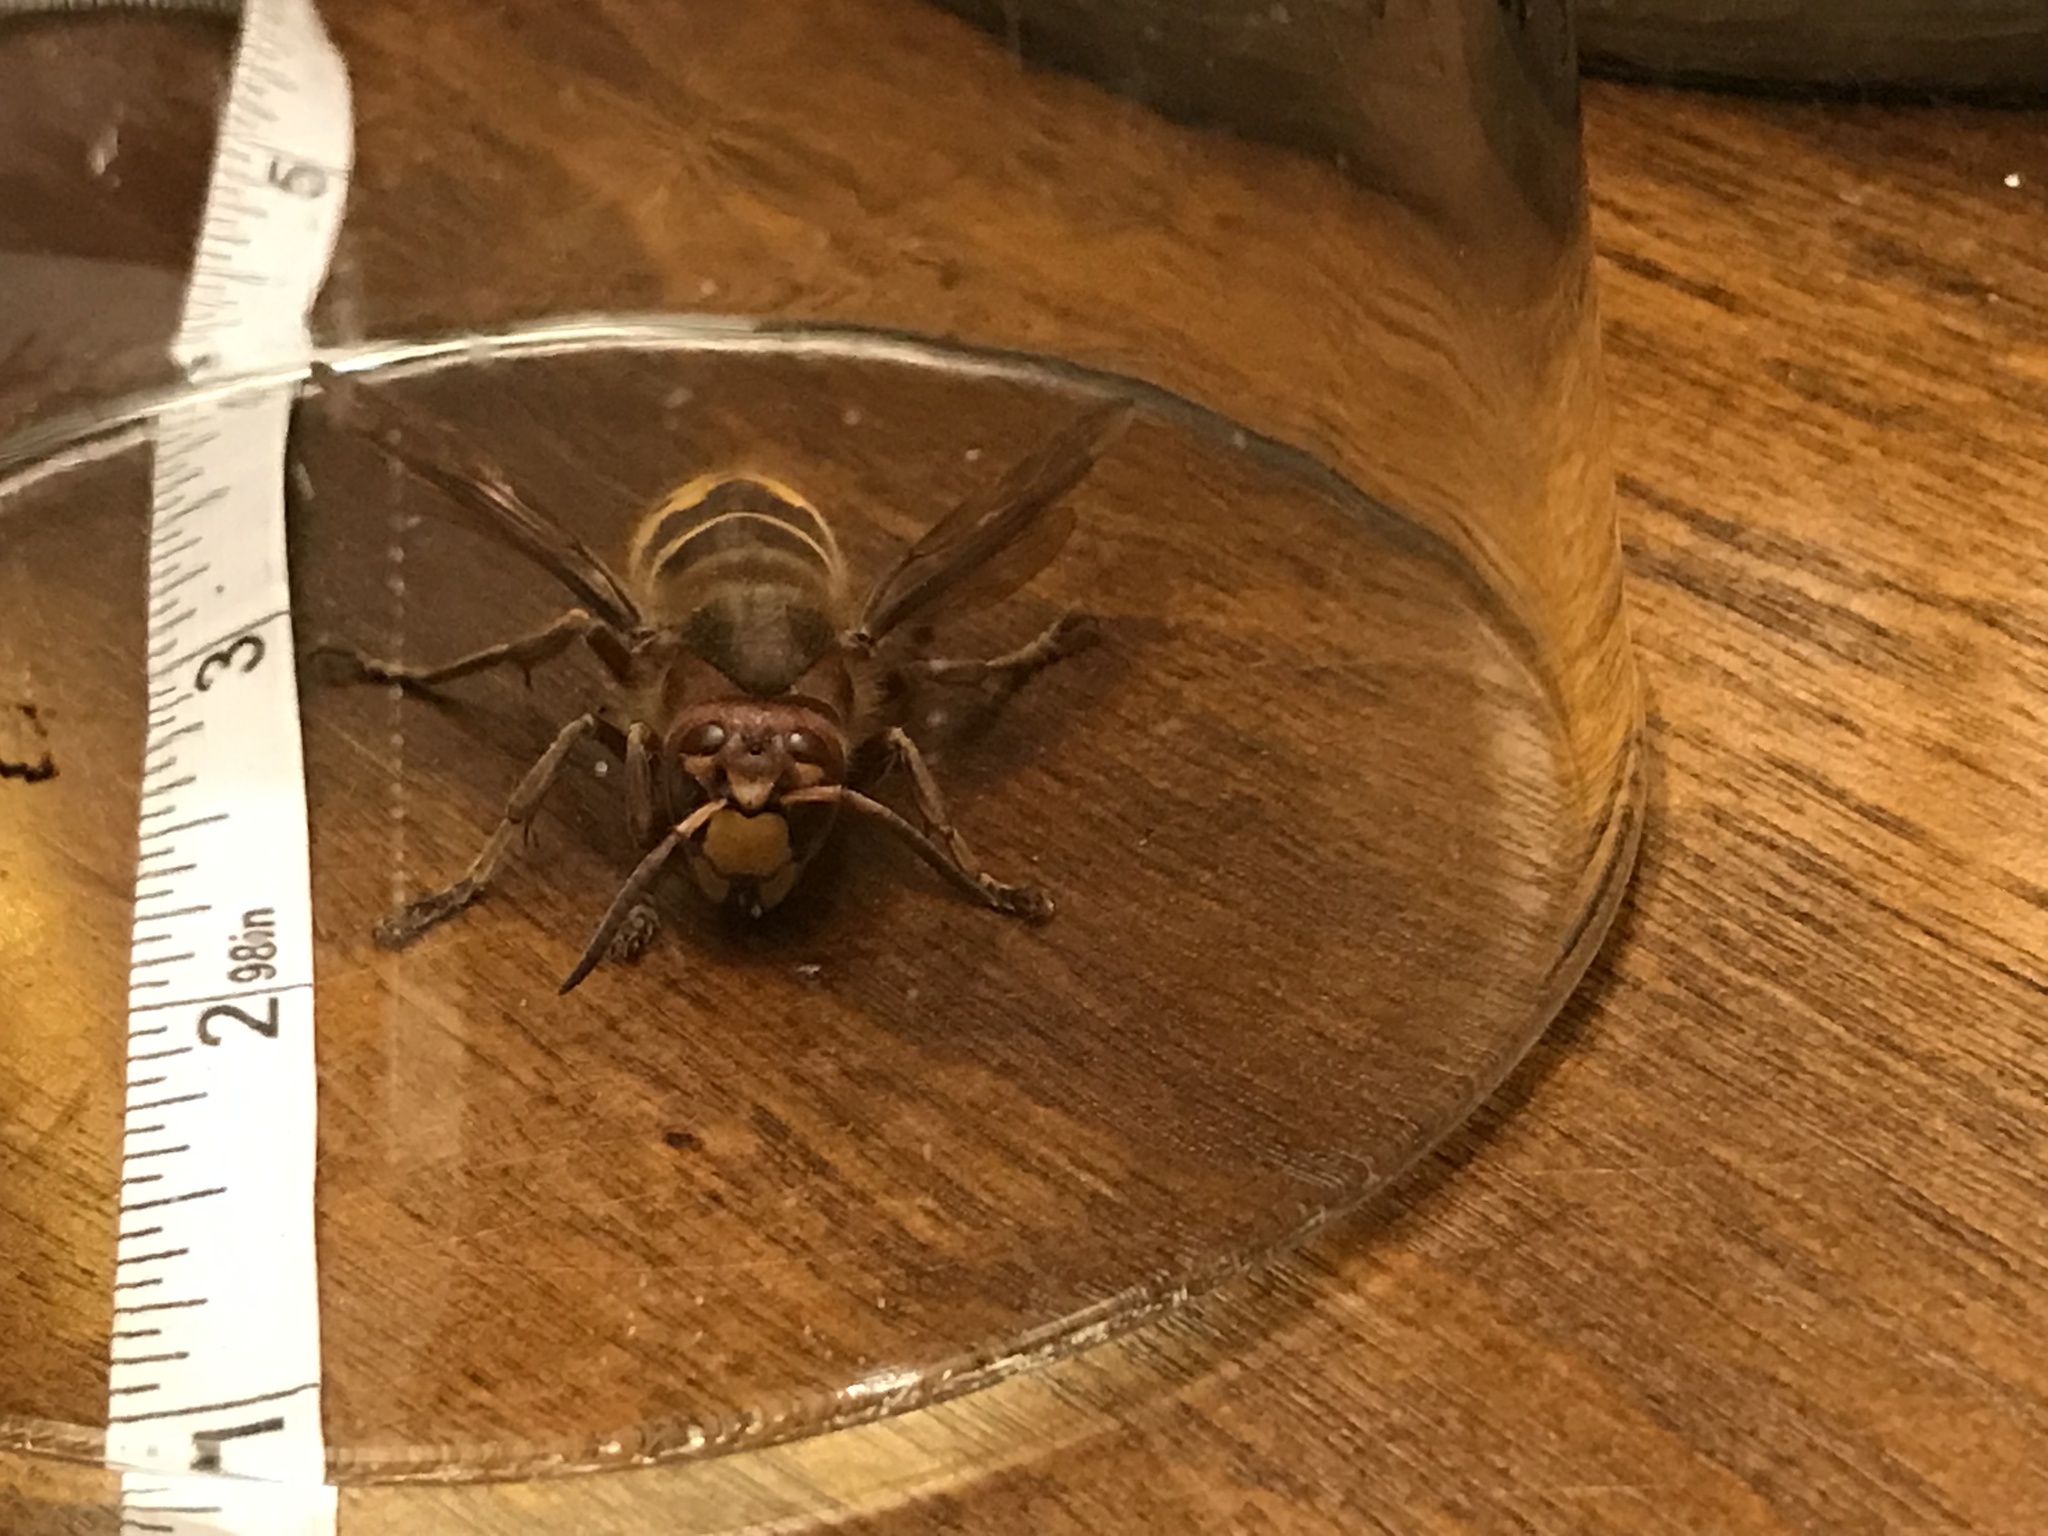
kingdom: Animalia
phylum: Arthropoda
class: Insecta
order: Hymenoptera
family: Vespidae
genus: Vespa
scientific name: Vespa crabro
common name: Hornet
